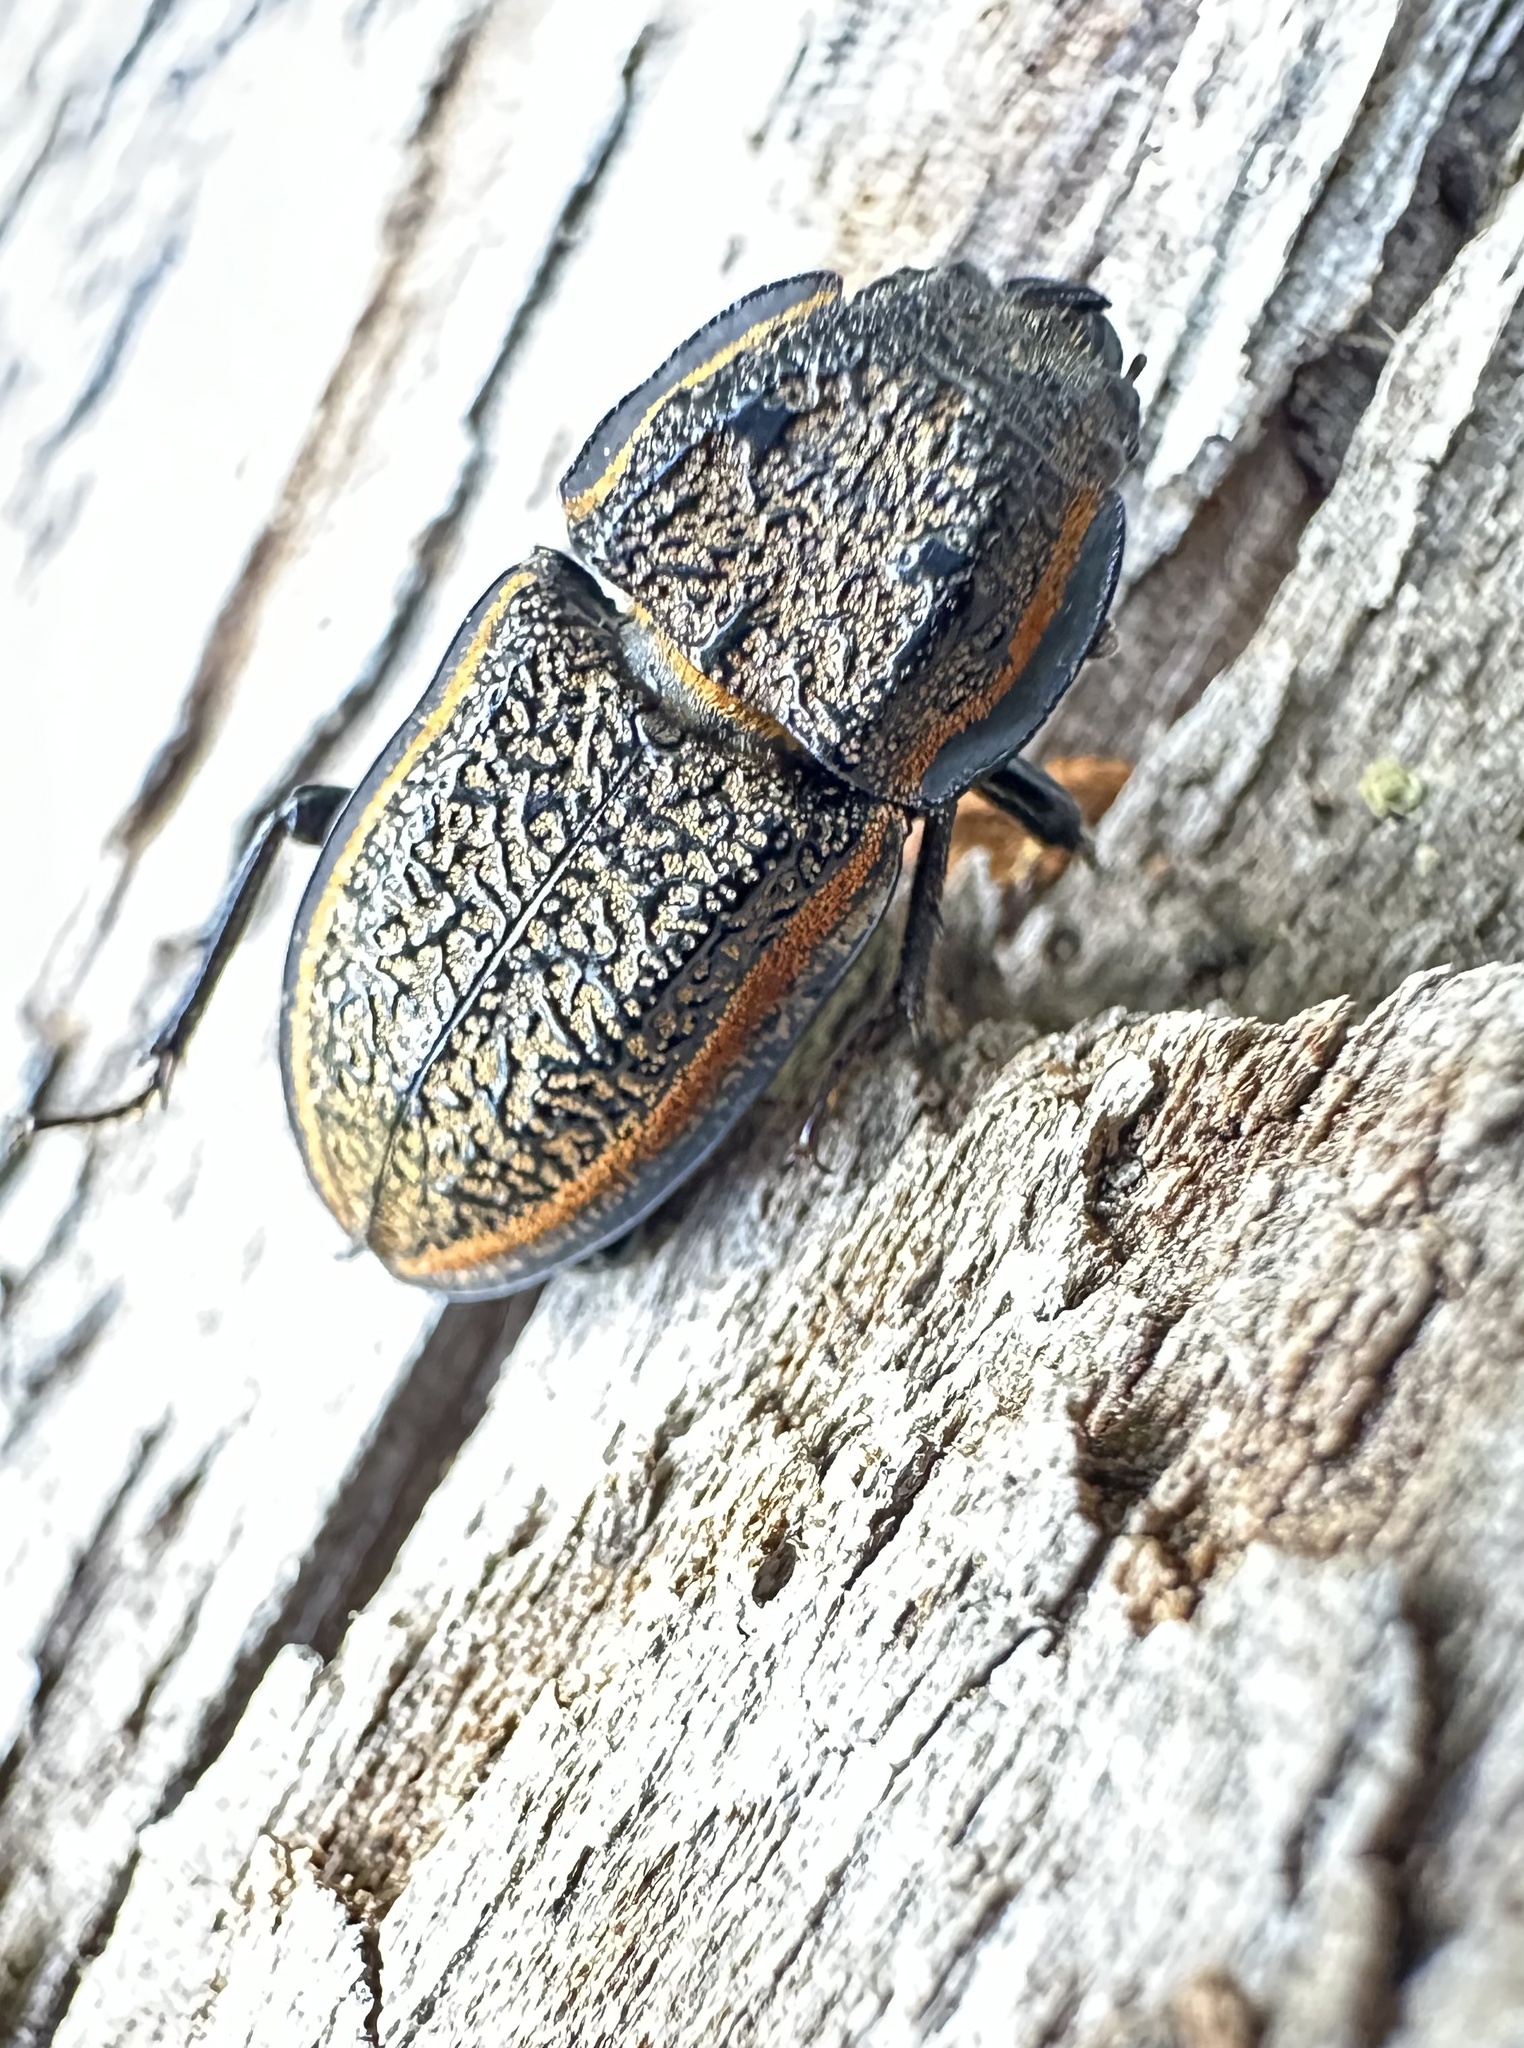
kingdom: Animalia
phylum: Arthropoda
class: Insecta
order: Coleoptera
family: Lucanidae
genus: Erichius
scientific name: Erichius caelatus
